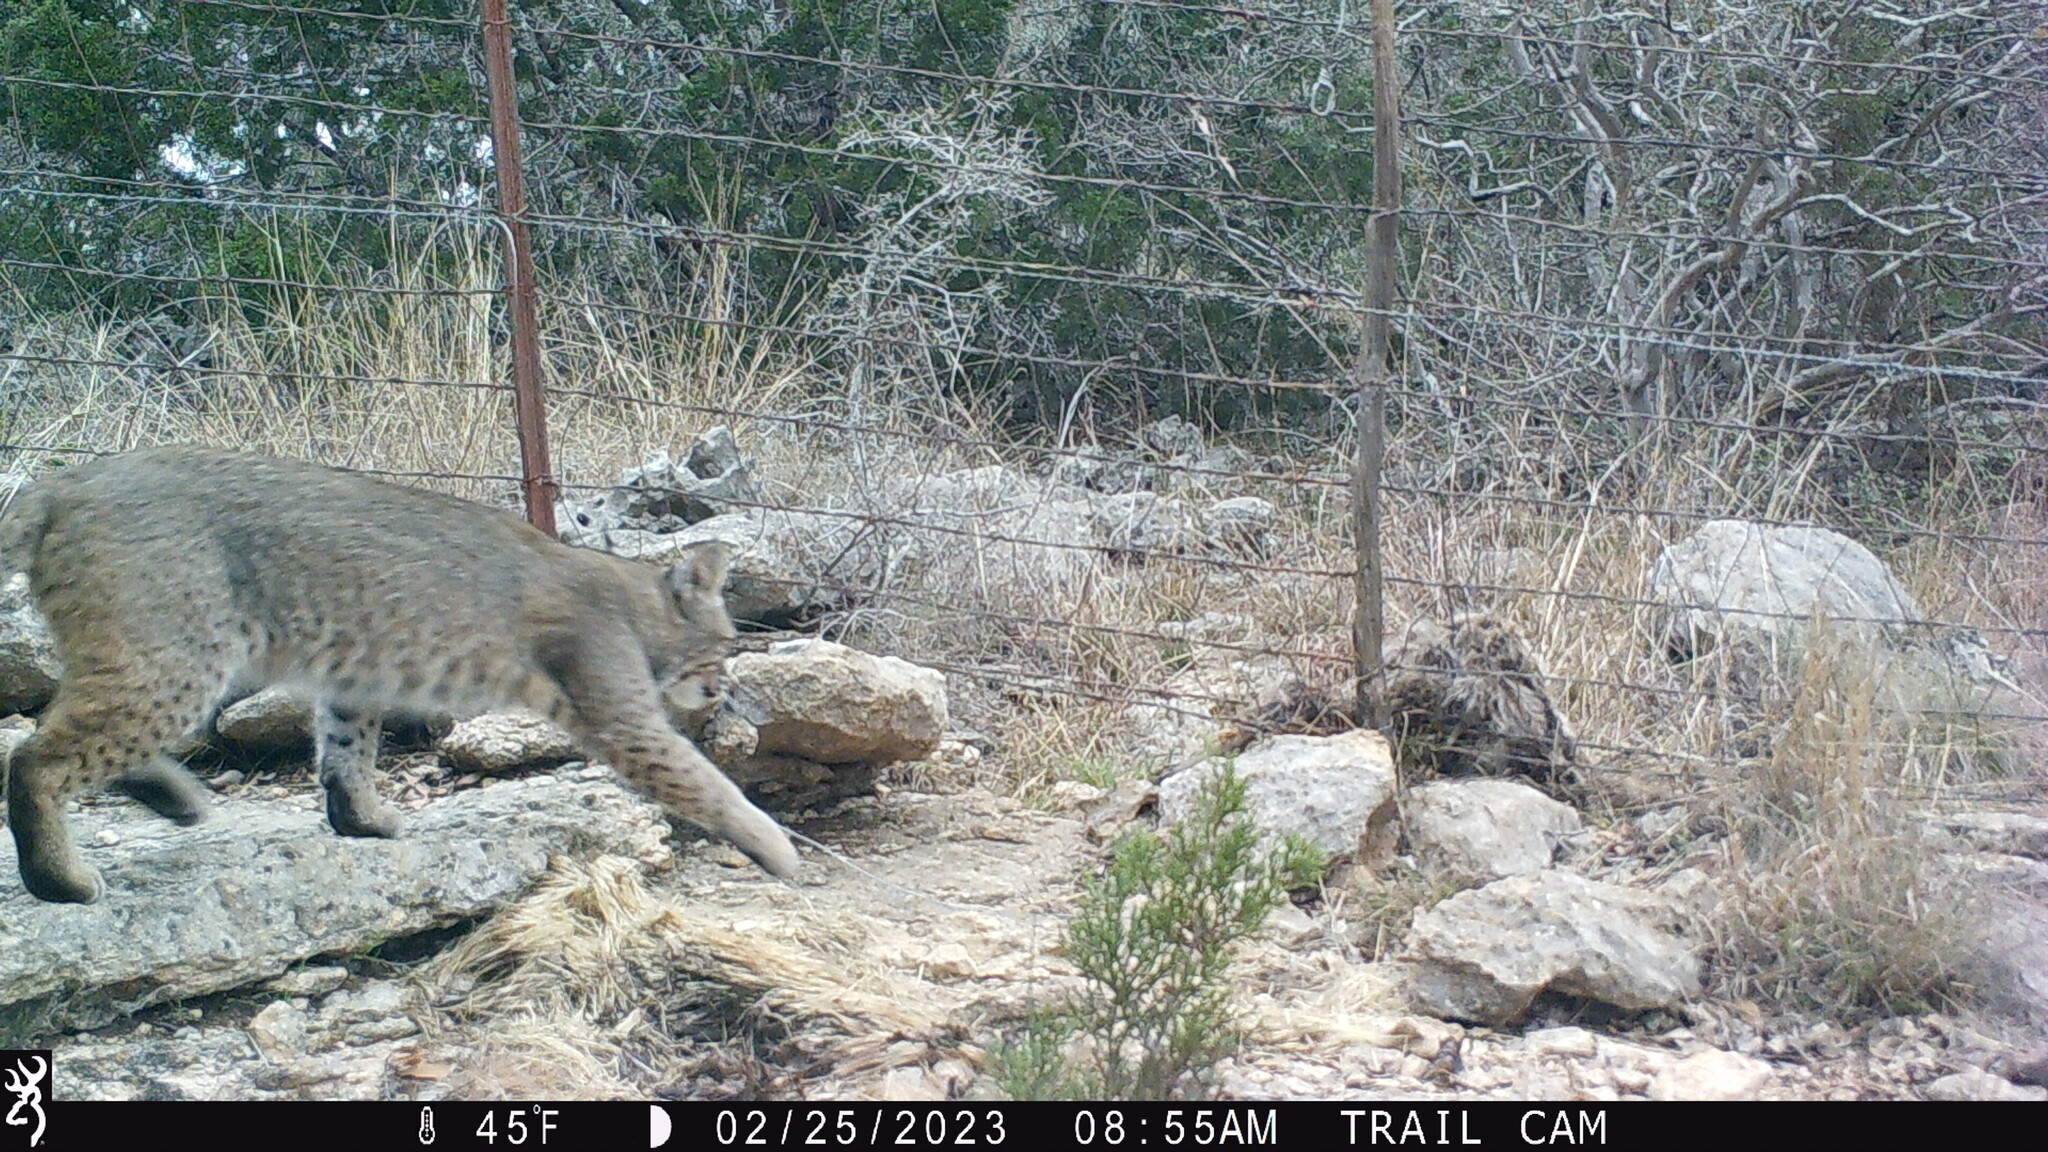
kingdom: Animalia
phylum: Chordata
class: Mammalia
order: Carnivora
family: Felidae
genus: Lynx
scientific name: Lynx rufus
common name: Bobcat
